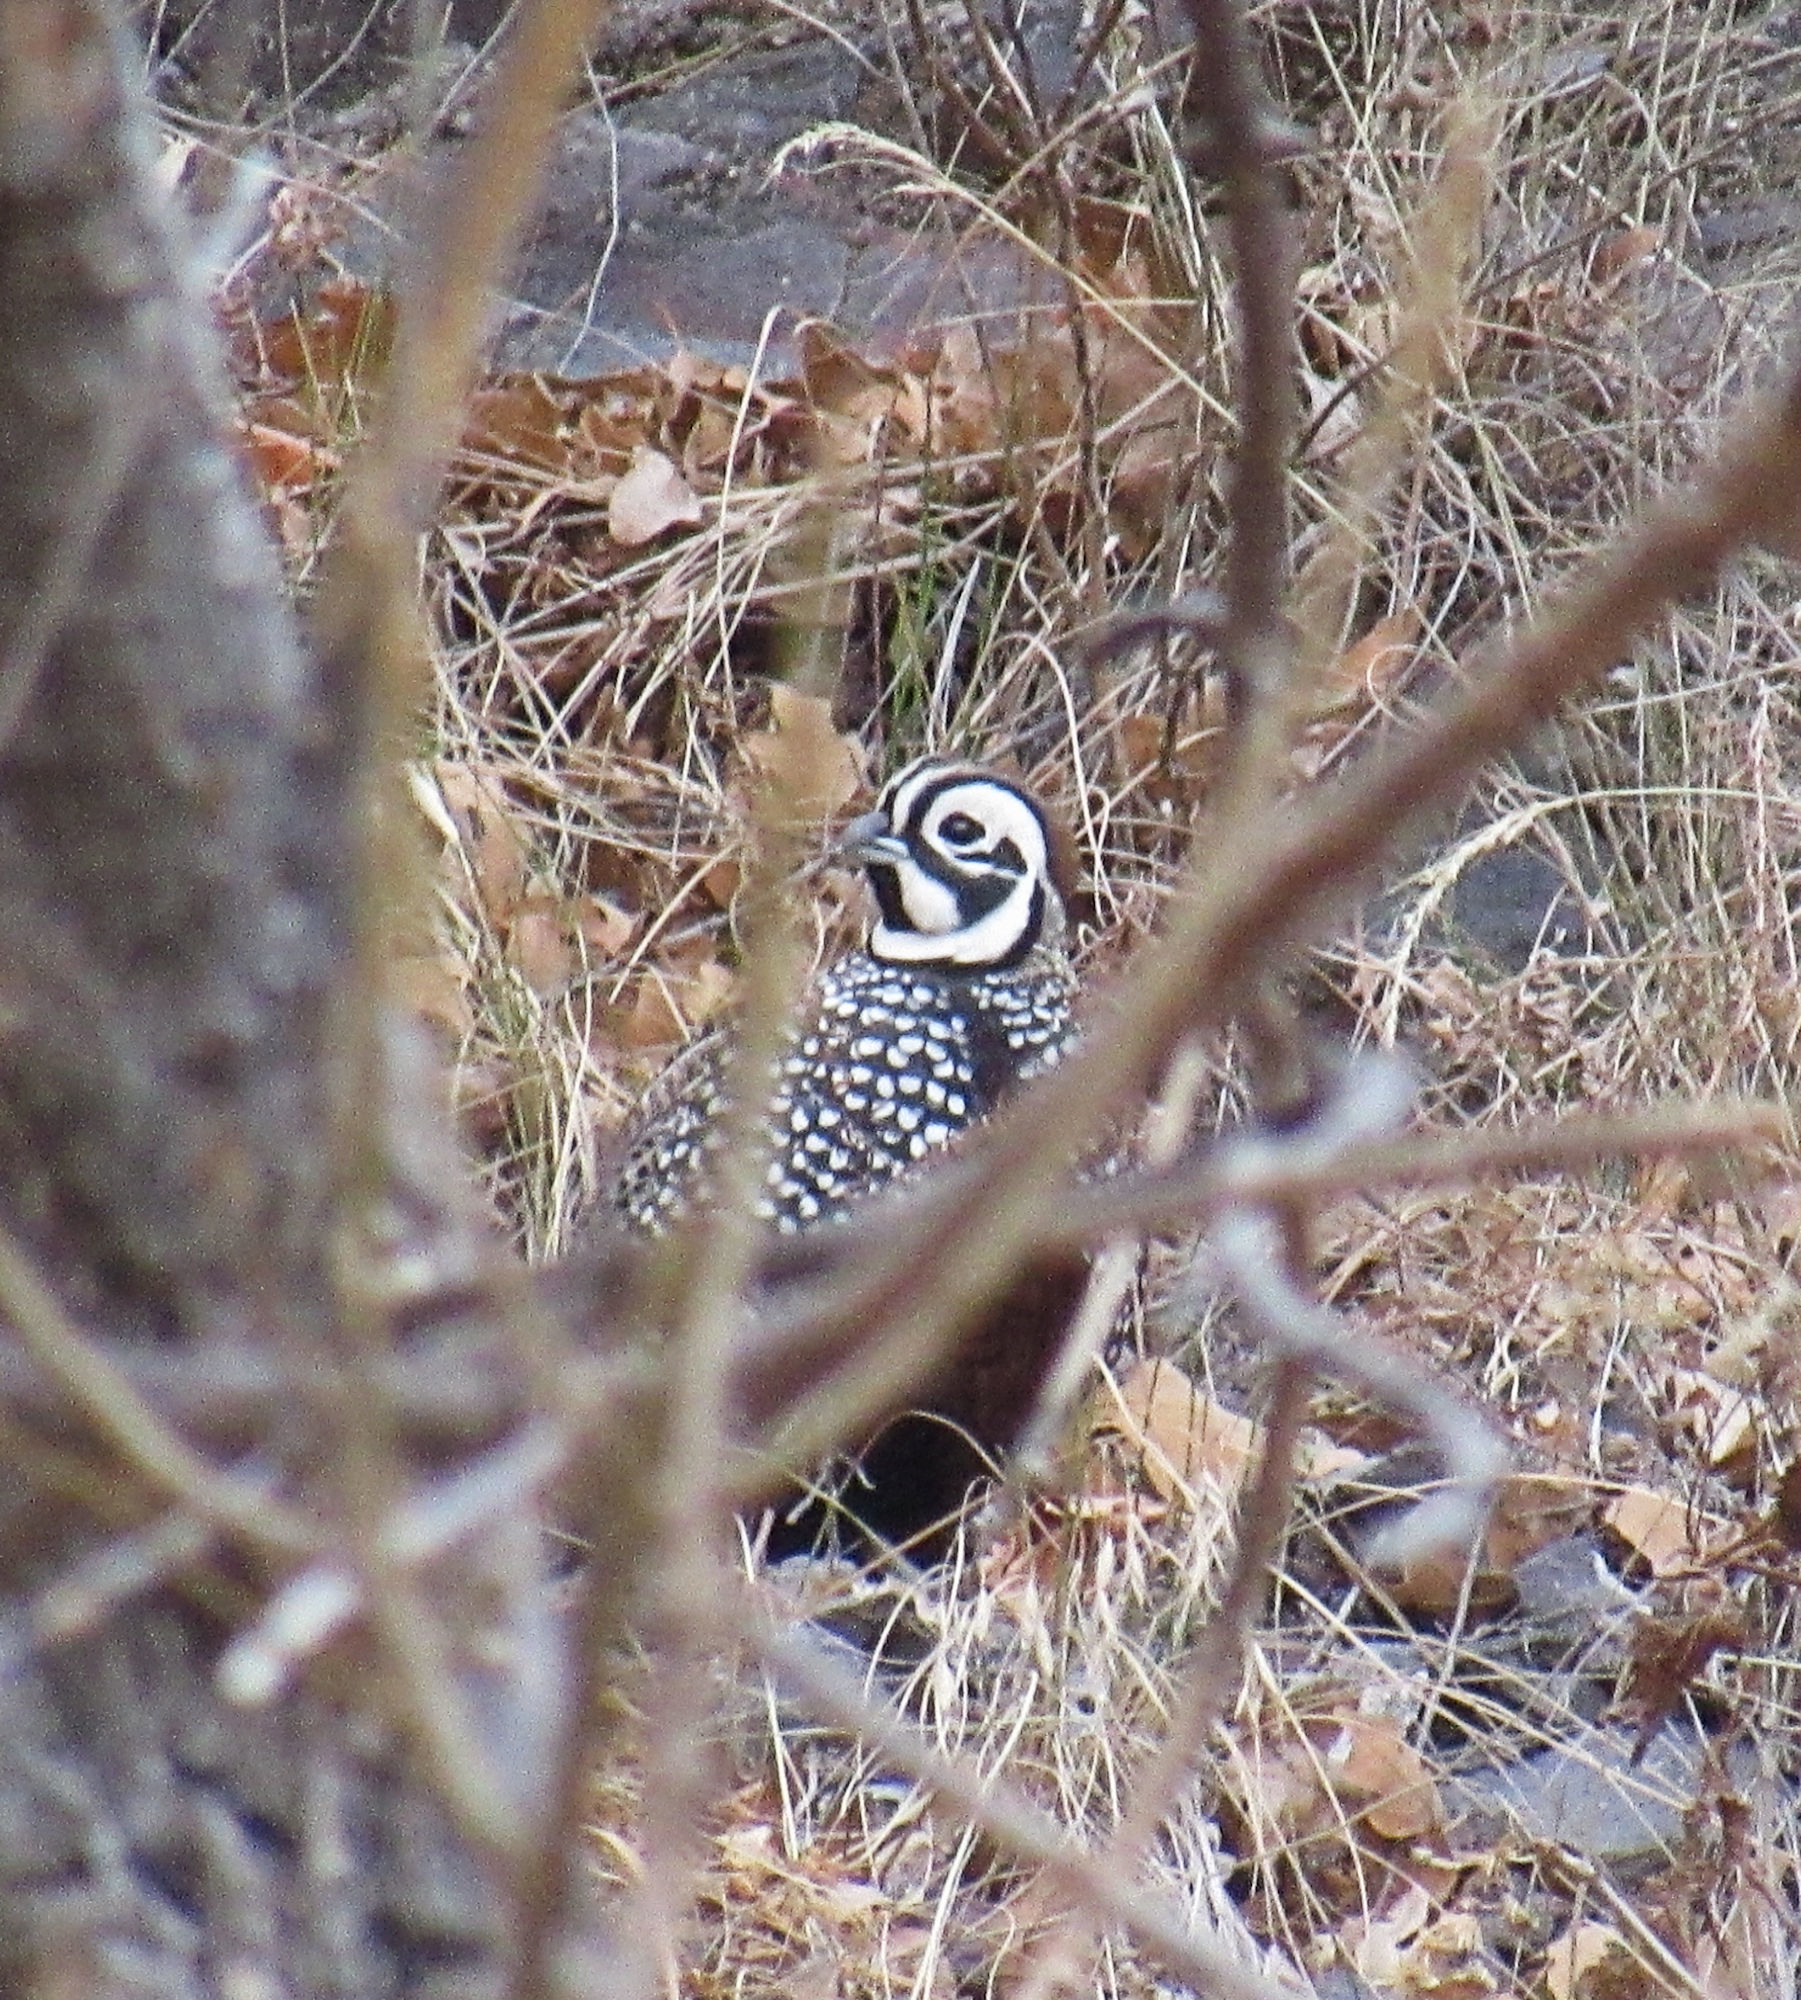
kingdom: Animalia
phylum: Chordata
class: Aves
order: Galliformes
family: Odontophoridae
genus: Cyrtonyx
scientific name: Cyrtonyx montezumae
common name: Montezuma quail
